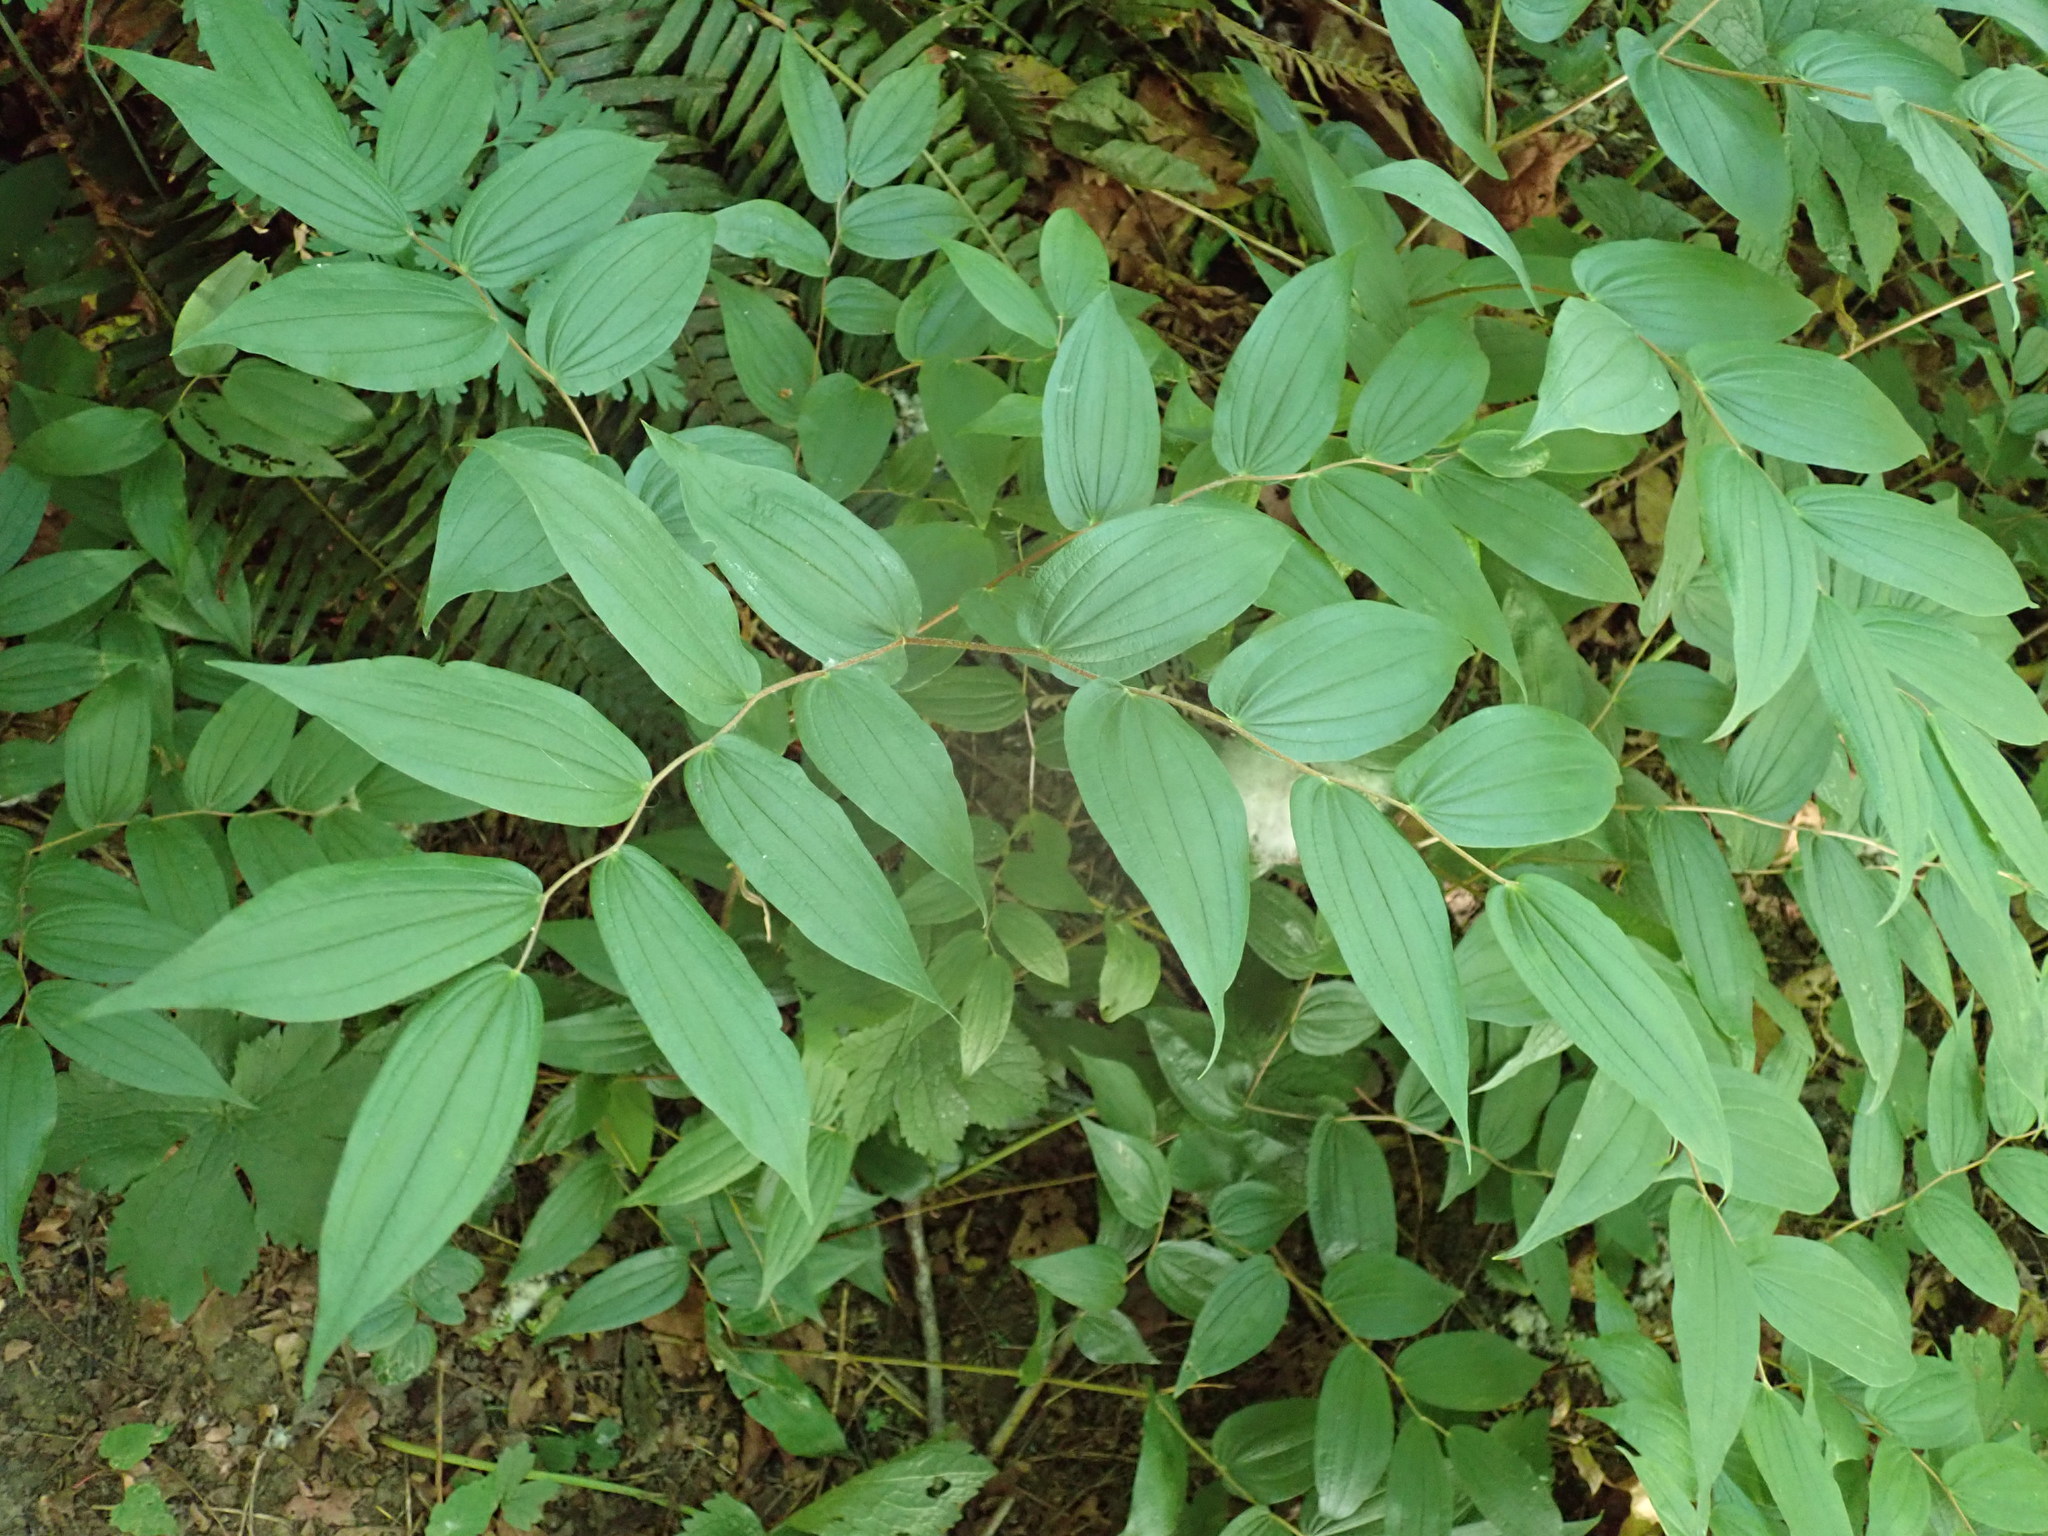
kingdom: Plantae
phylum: Tracheophyta
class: Liliopsida
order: Liliales
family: Liliaceae
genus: Prosartes
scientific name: Prosartes hookeri
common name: Fairy-bells
